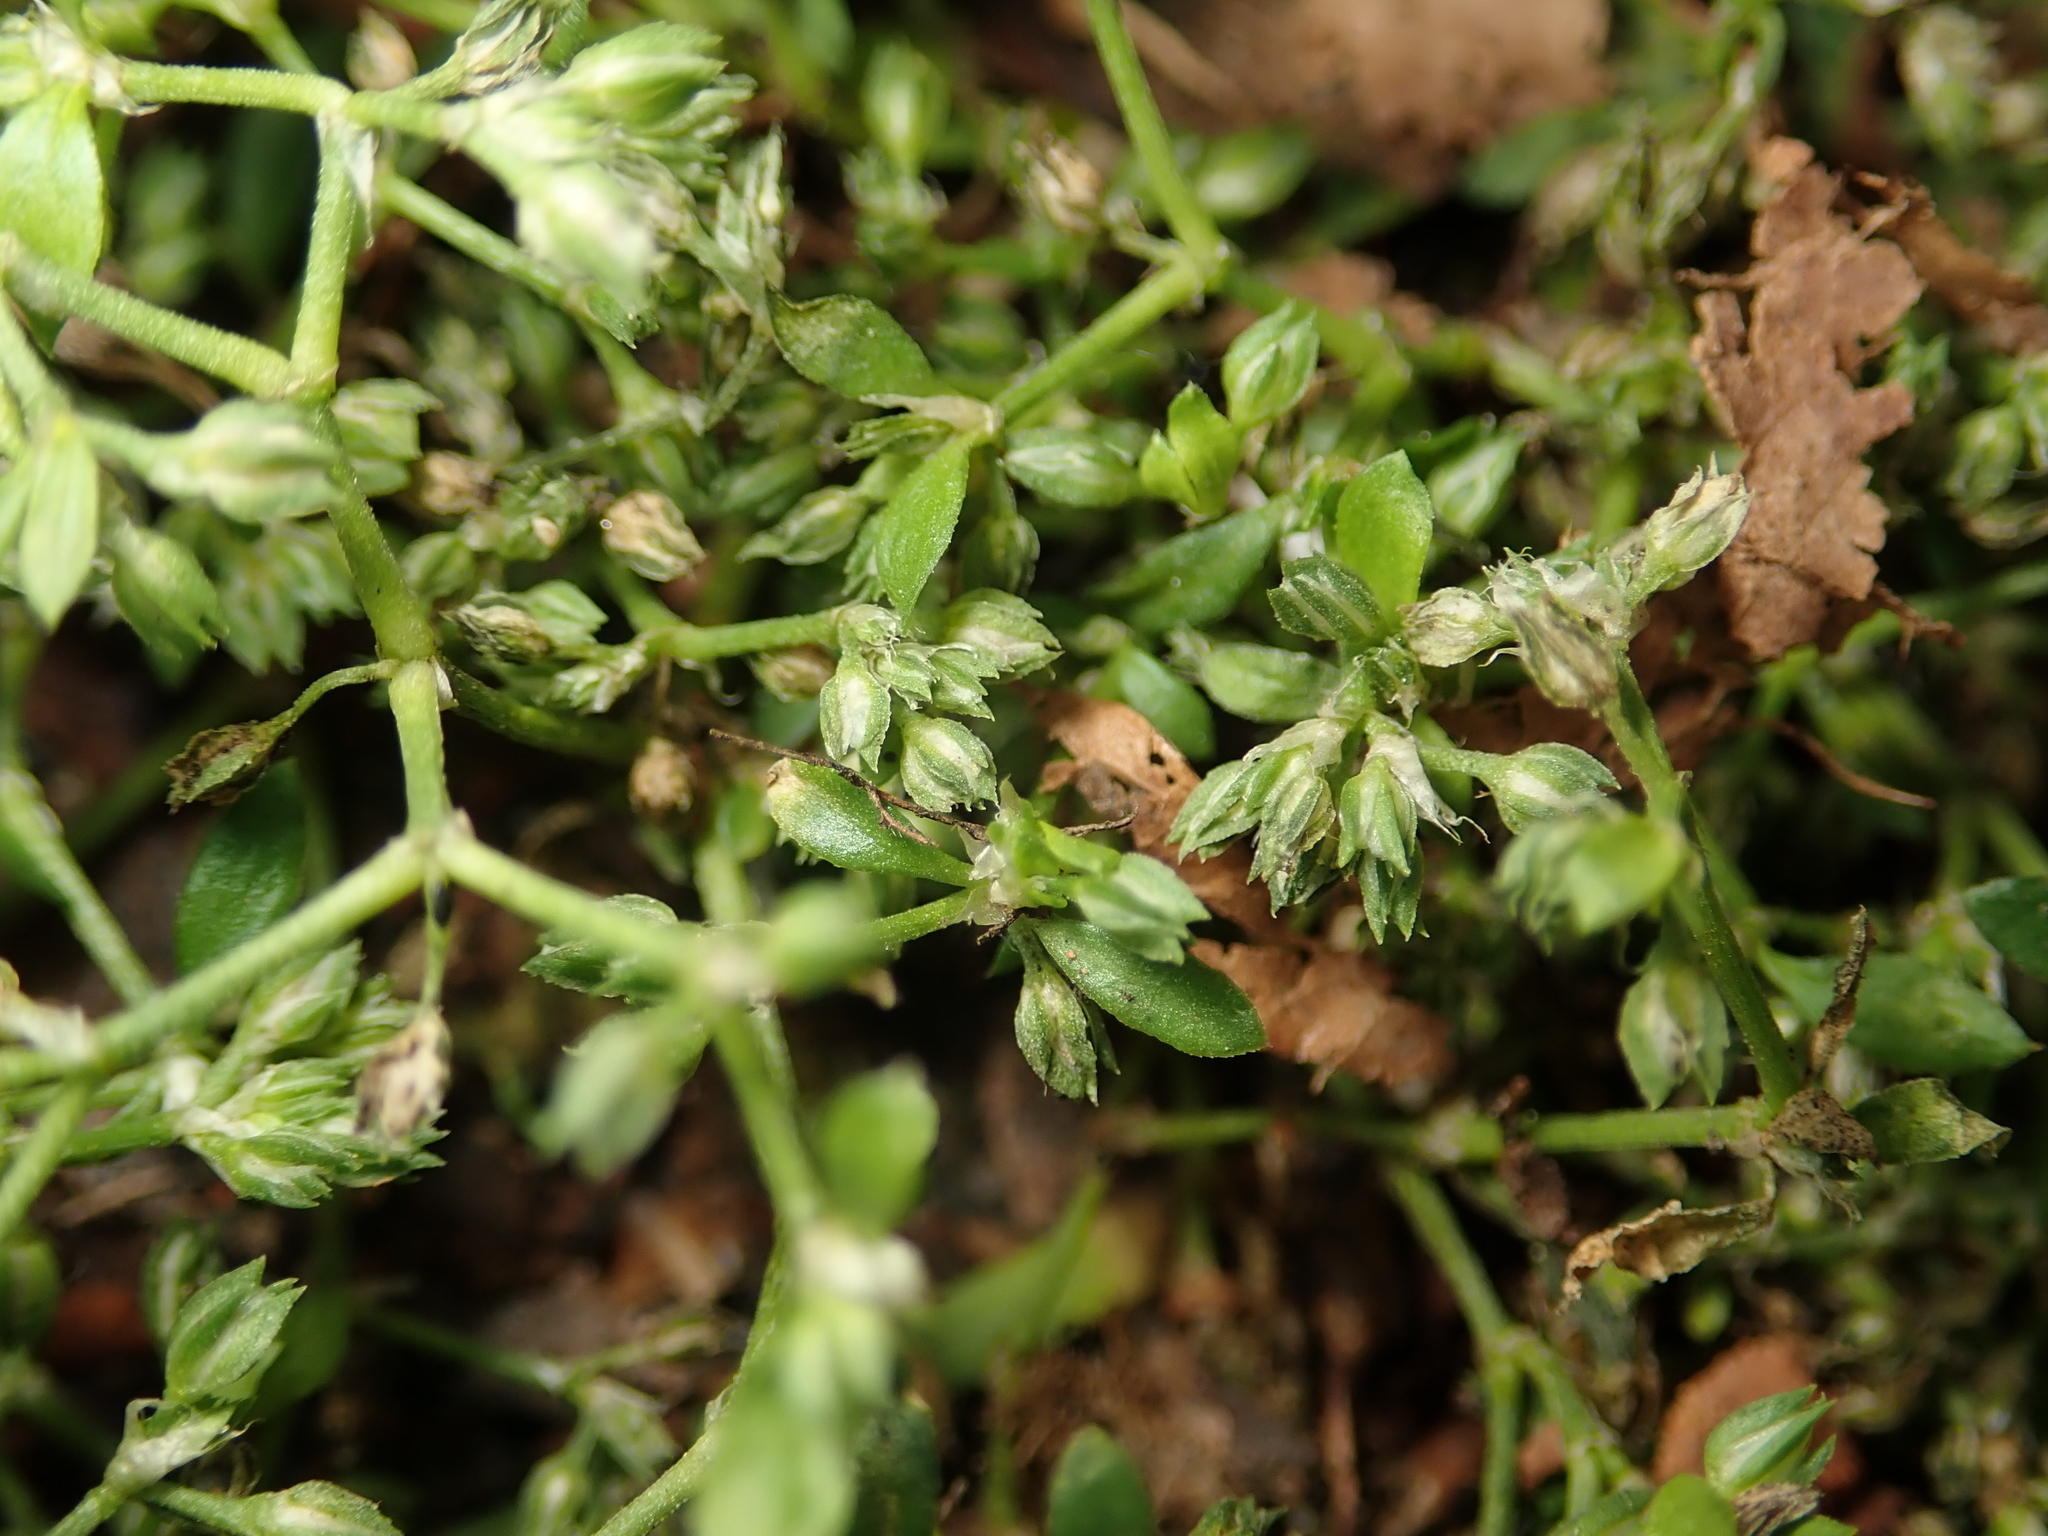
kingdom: Plantae
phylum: Tracheophyta
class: Magnoliopsida
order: Caryophyllales
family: Caryophyllaceae
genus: Polycarpon
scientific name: Polycarpon tetraphyllum
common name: Four-leaved all-seed
